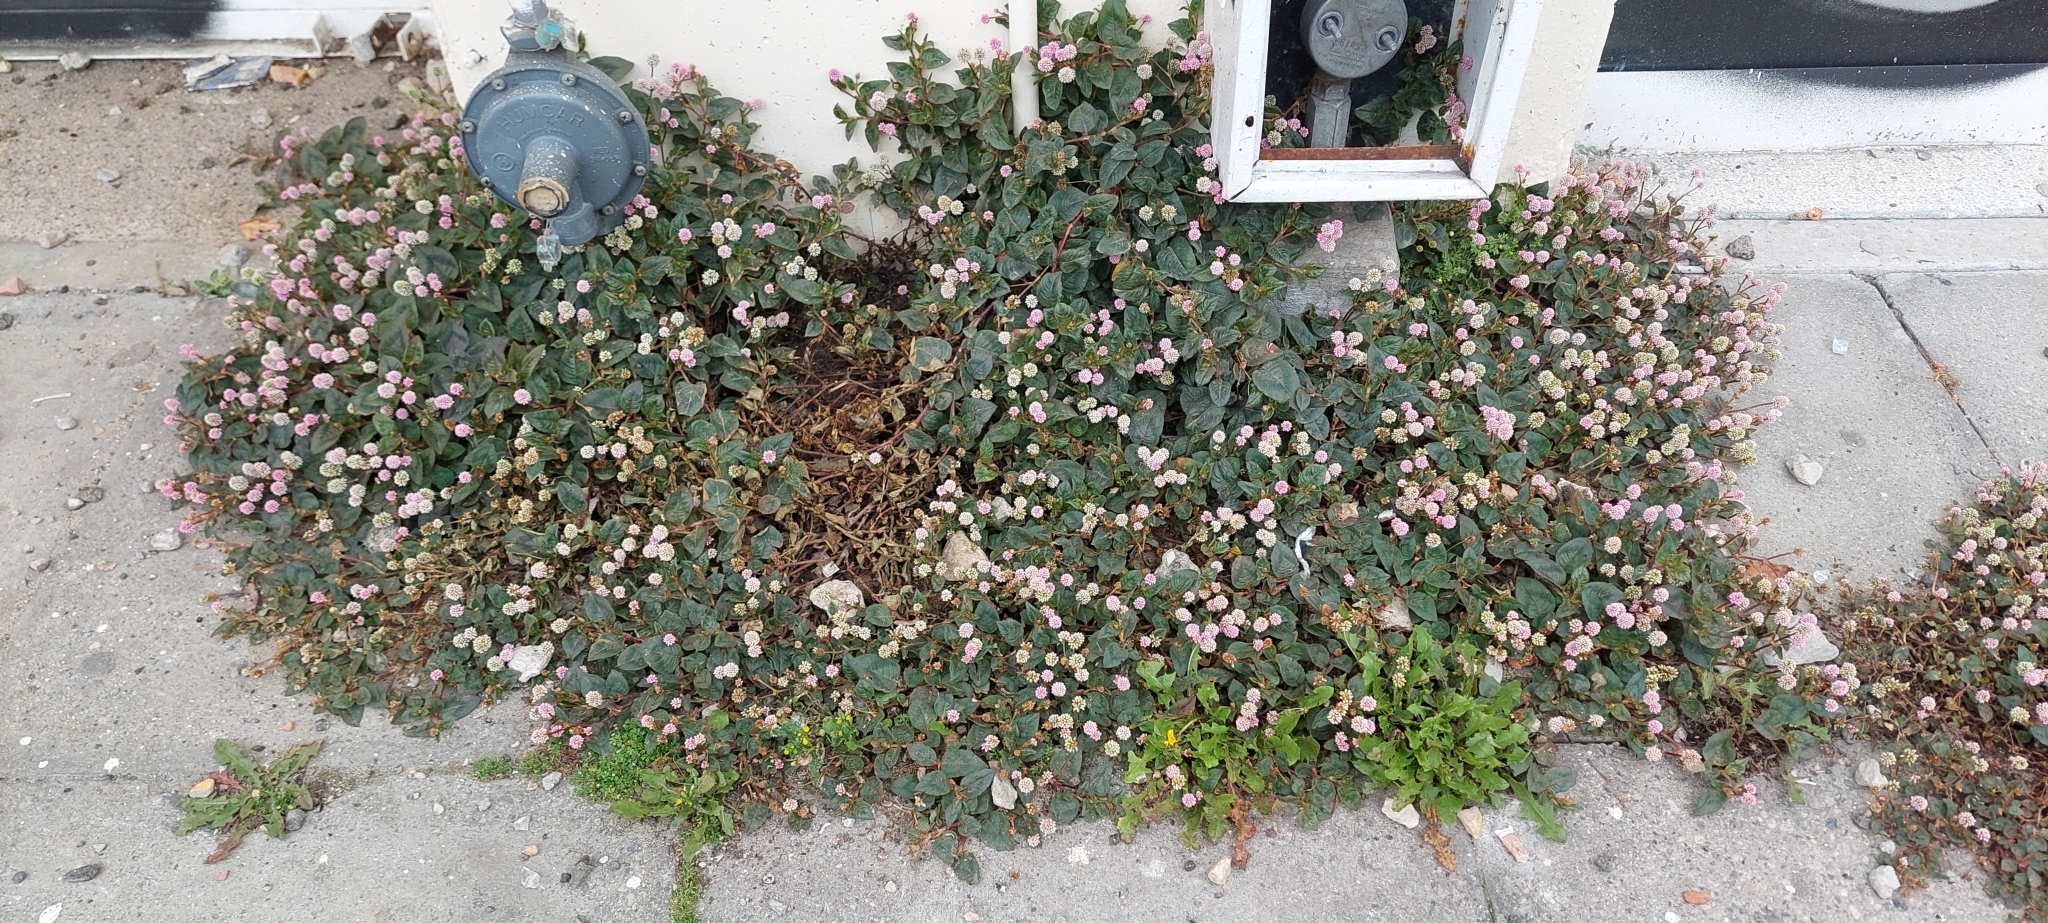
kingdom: Plantae
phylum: Tracheophyta
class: Magnoliopsida
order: Caryophyllales
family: Polygonaceae
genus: Persicaria
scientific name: Persicaria capitata
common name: Pinkhead smartweed
